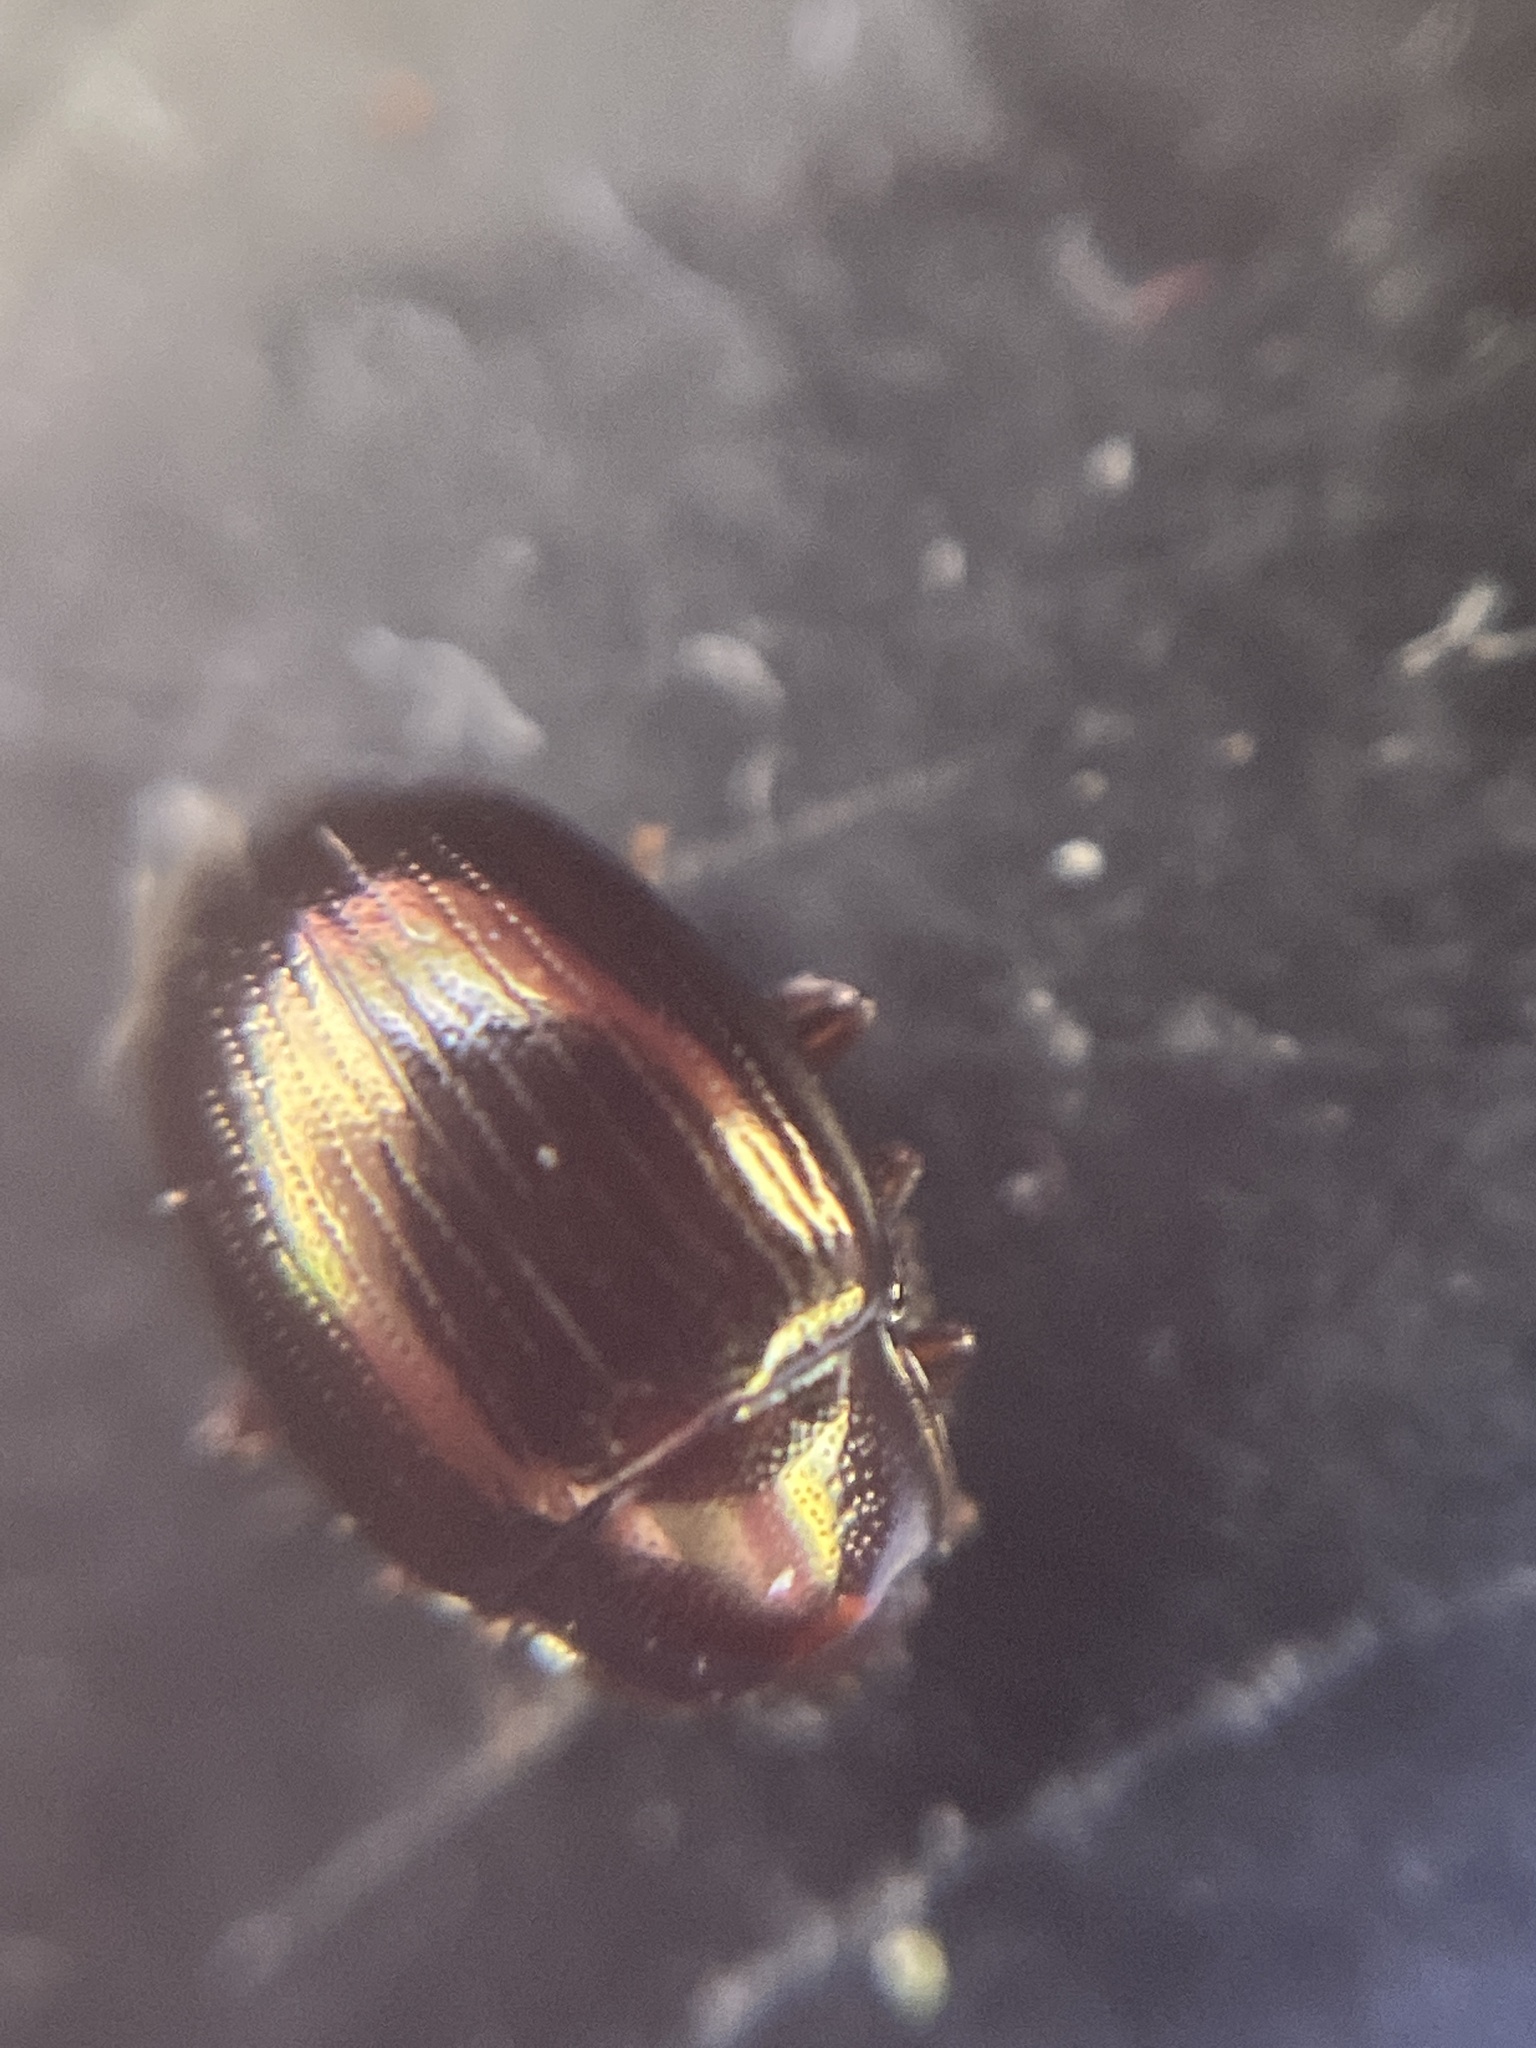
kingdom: Animalia
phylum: Arthropoda
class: Insecta
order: Coleoptera
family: Tenebrionidae
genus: Blapstinus
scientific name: Blapstinus metallicus
